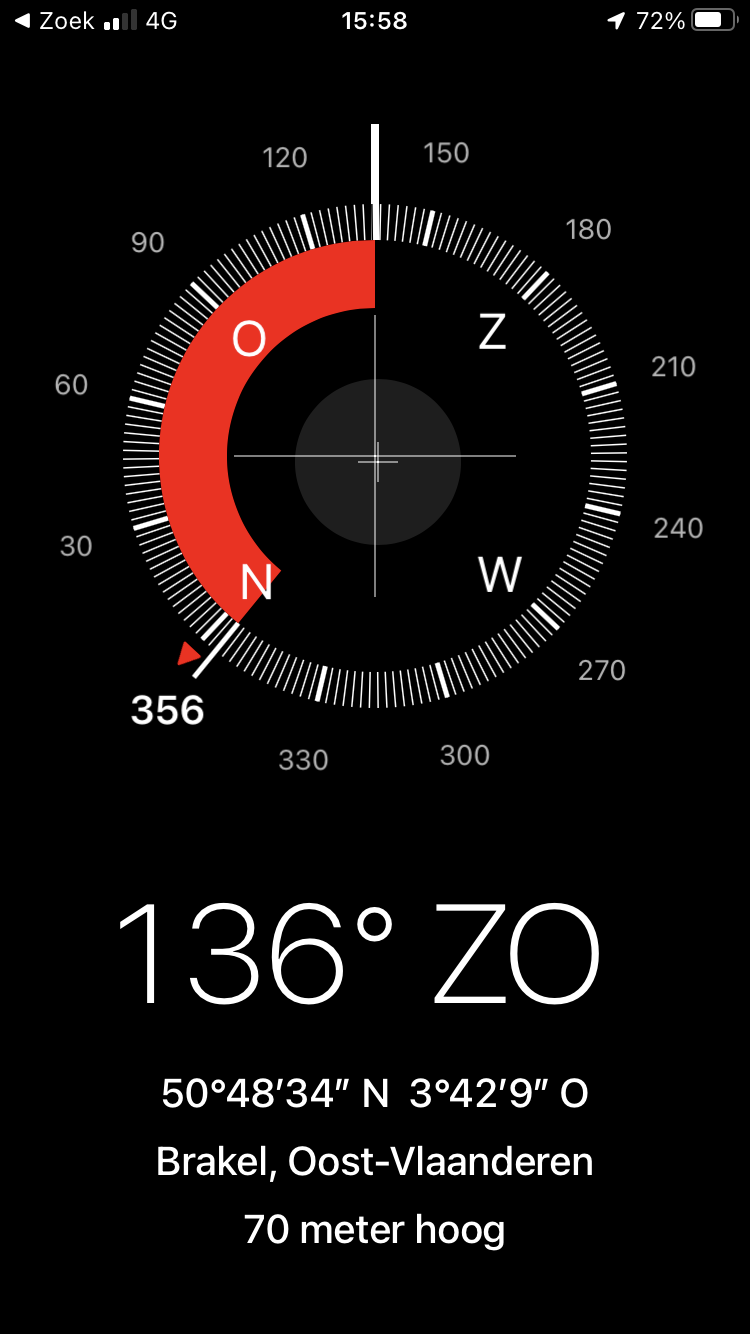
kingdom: Animalia
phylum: Arthropoda
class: Insecta
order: Hymenoptera
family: Vespidae
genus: Vespa
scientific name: Vespa velutina
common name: Asian hornet
